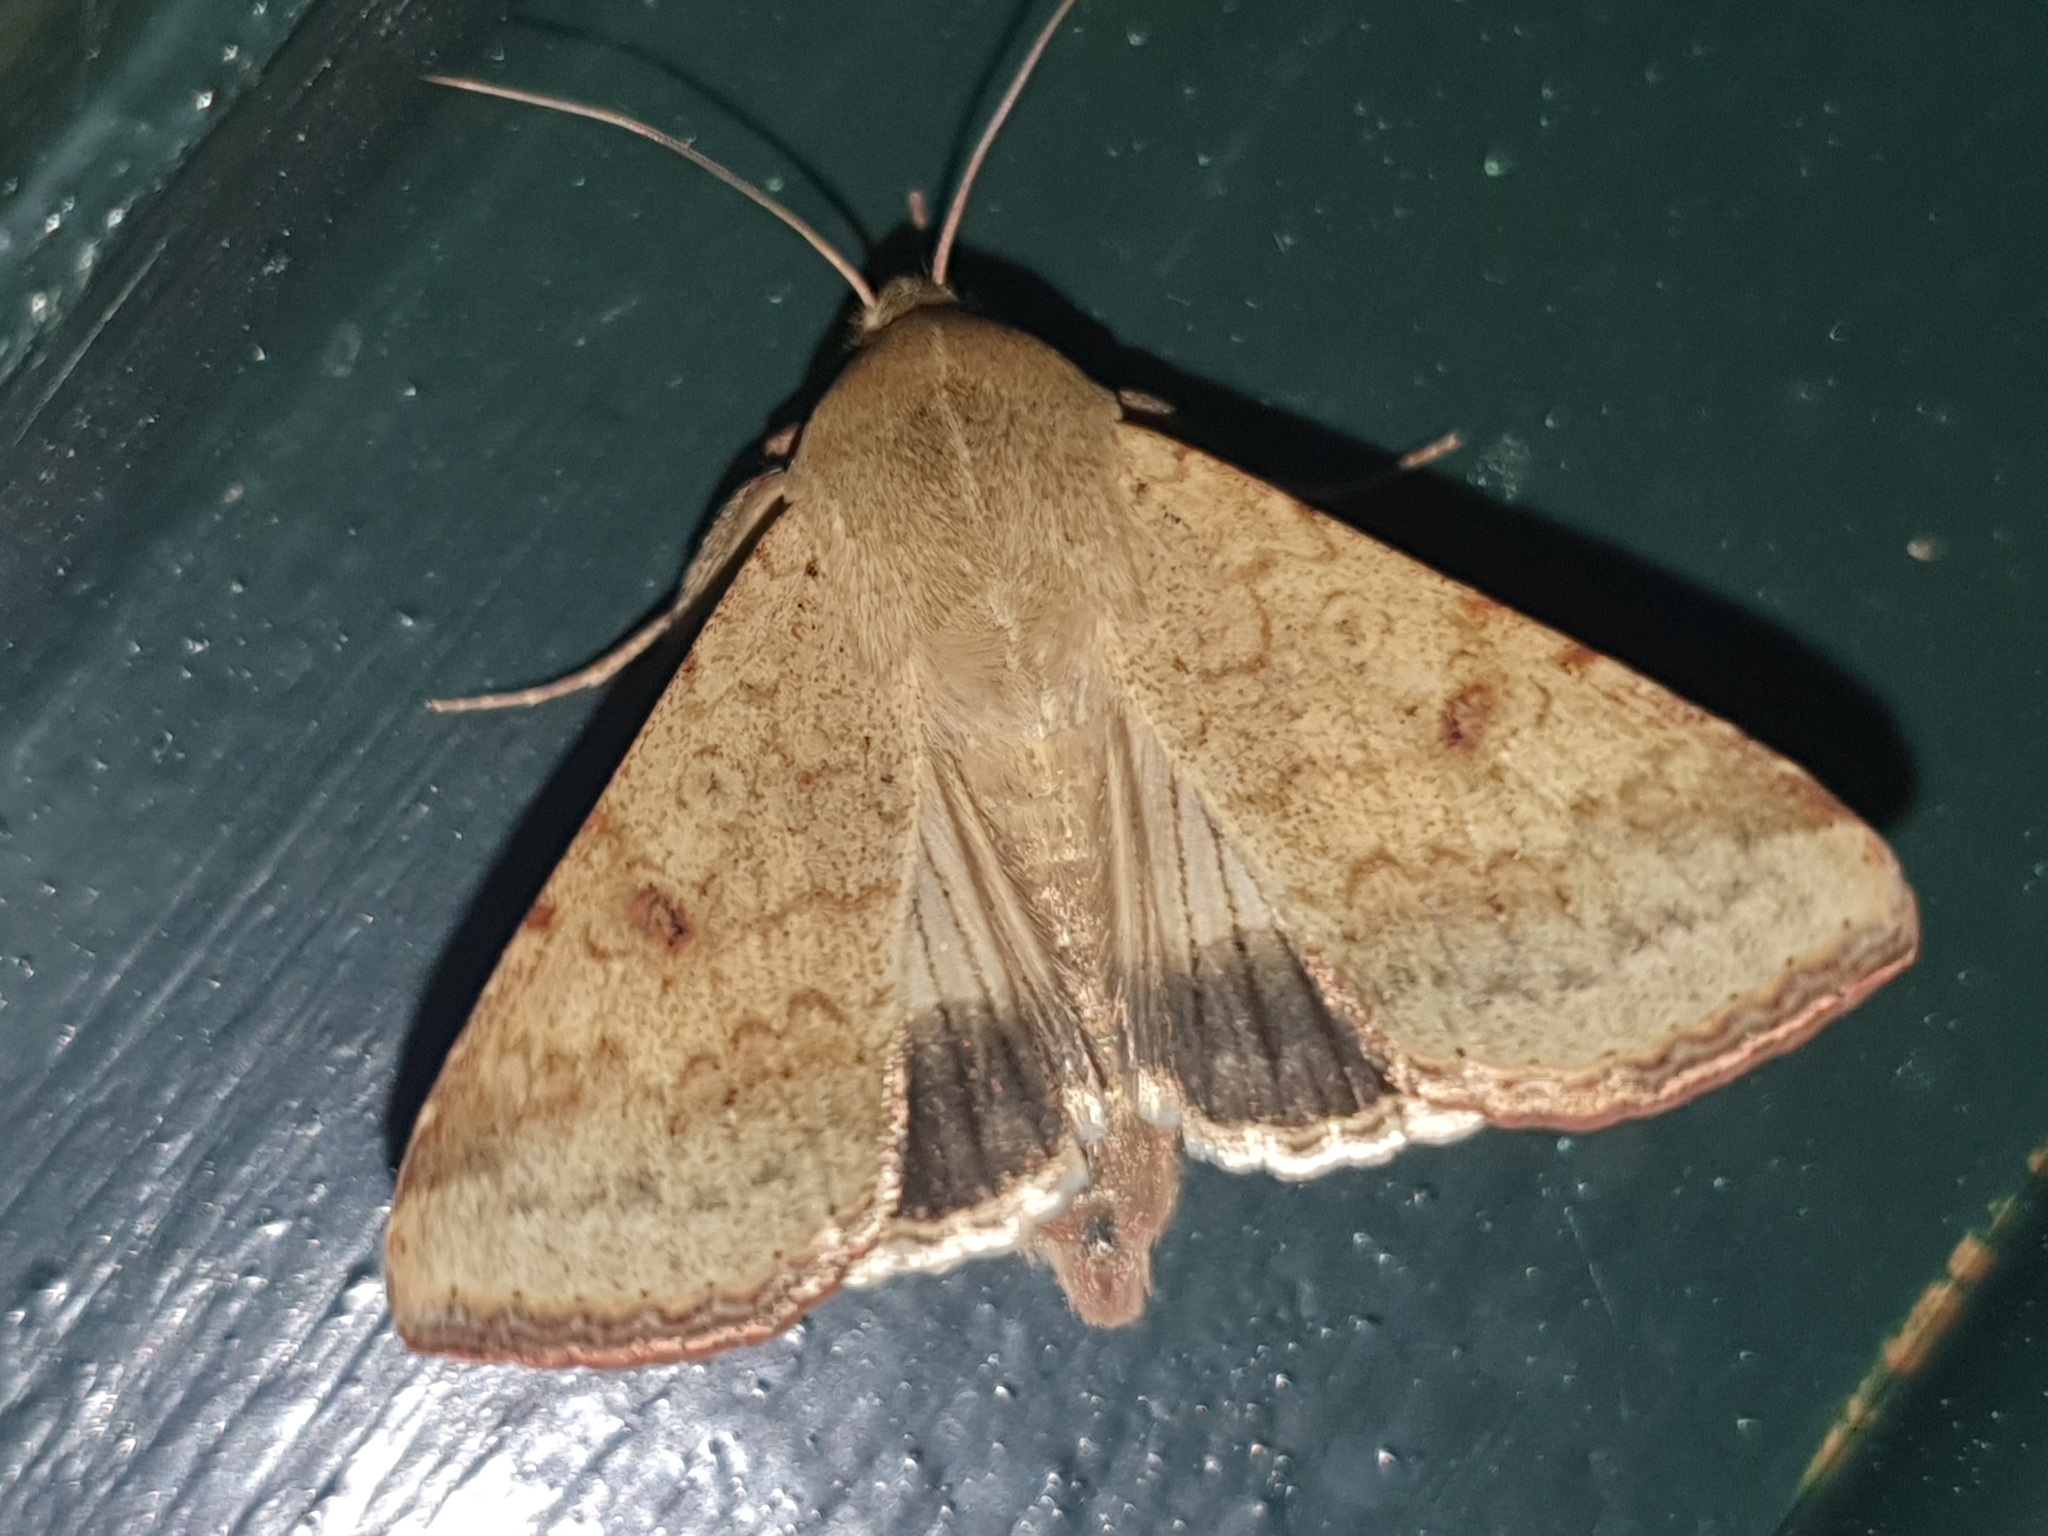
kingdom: Animalia
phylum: Arthropoda
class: Insecta
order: Lepidoptera
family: Noctuidae
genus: Helicoverpa
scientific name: Helicoverpa armigera
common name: Cotton bollworm
